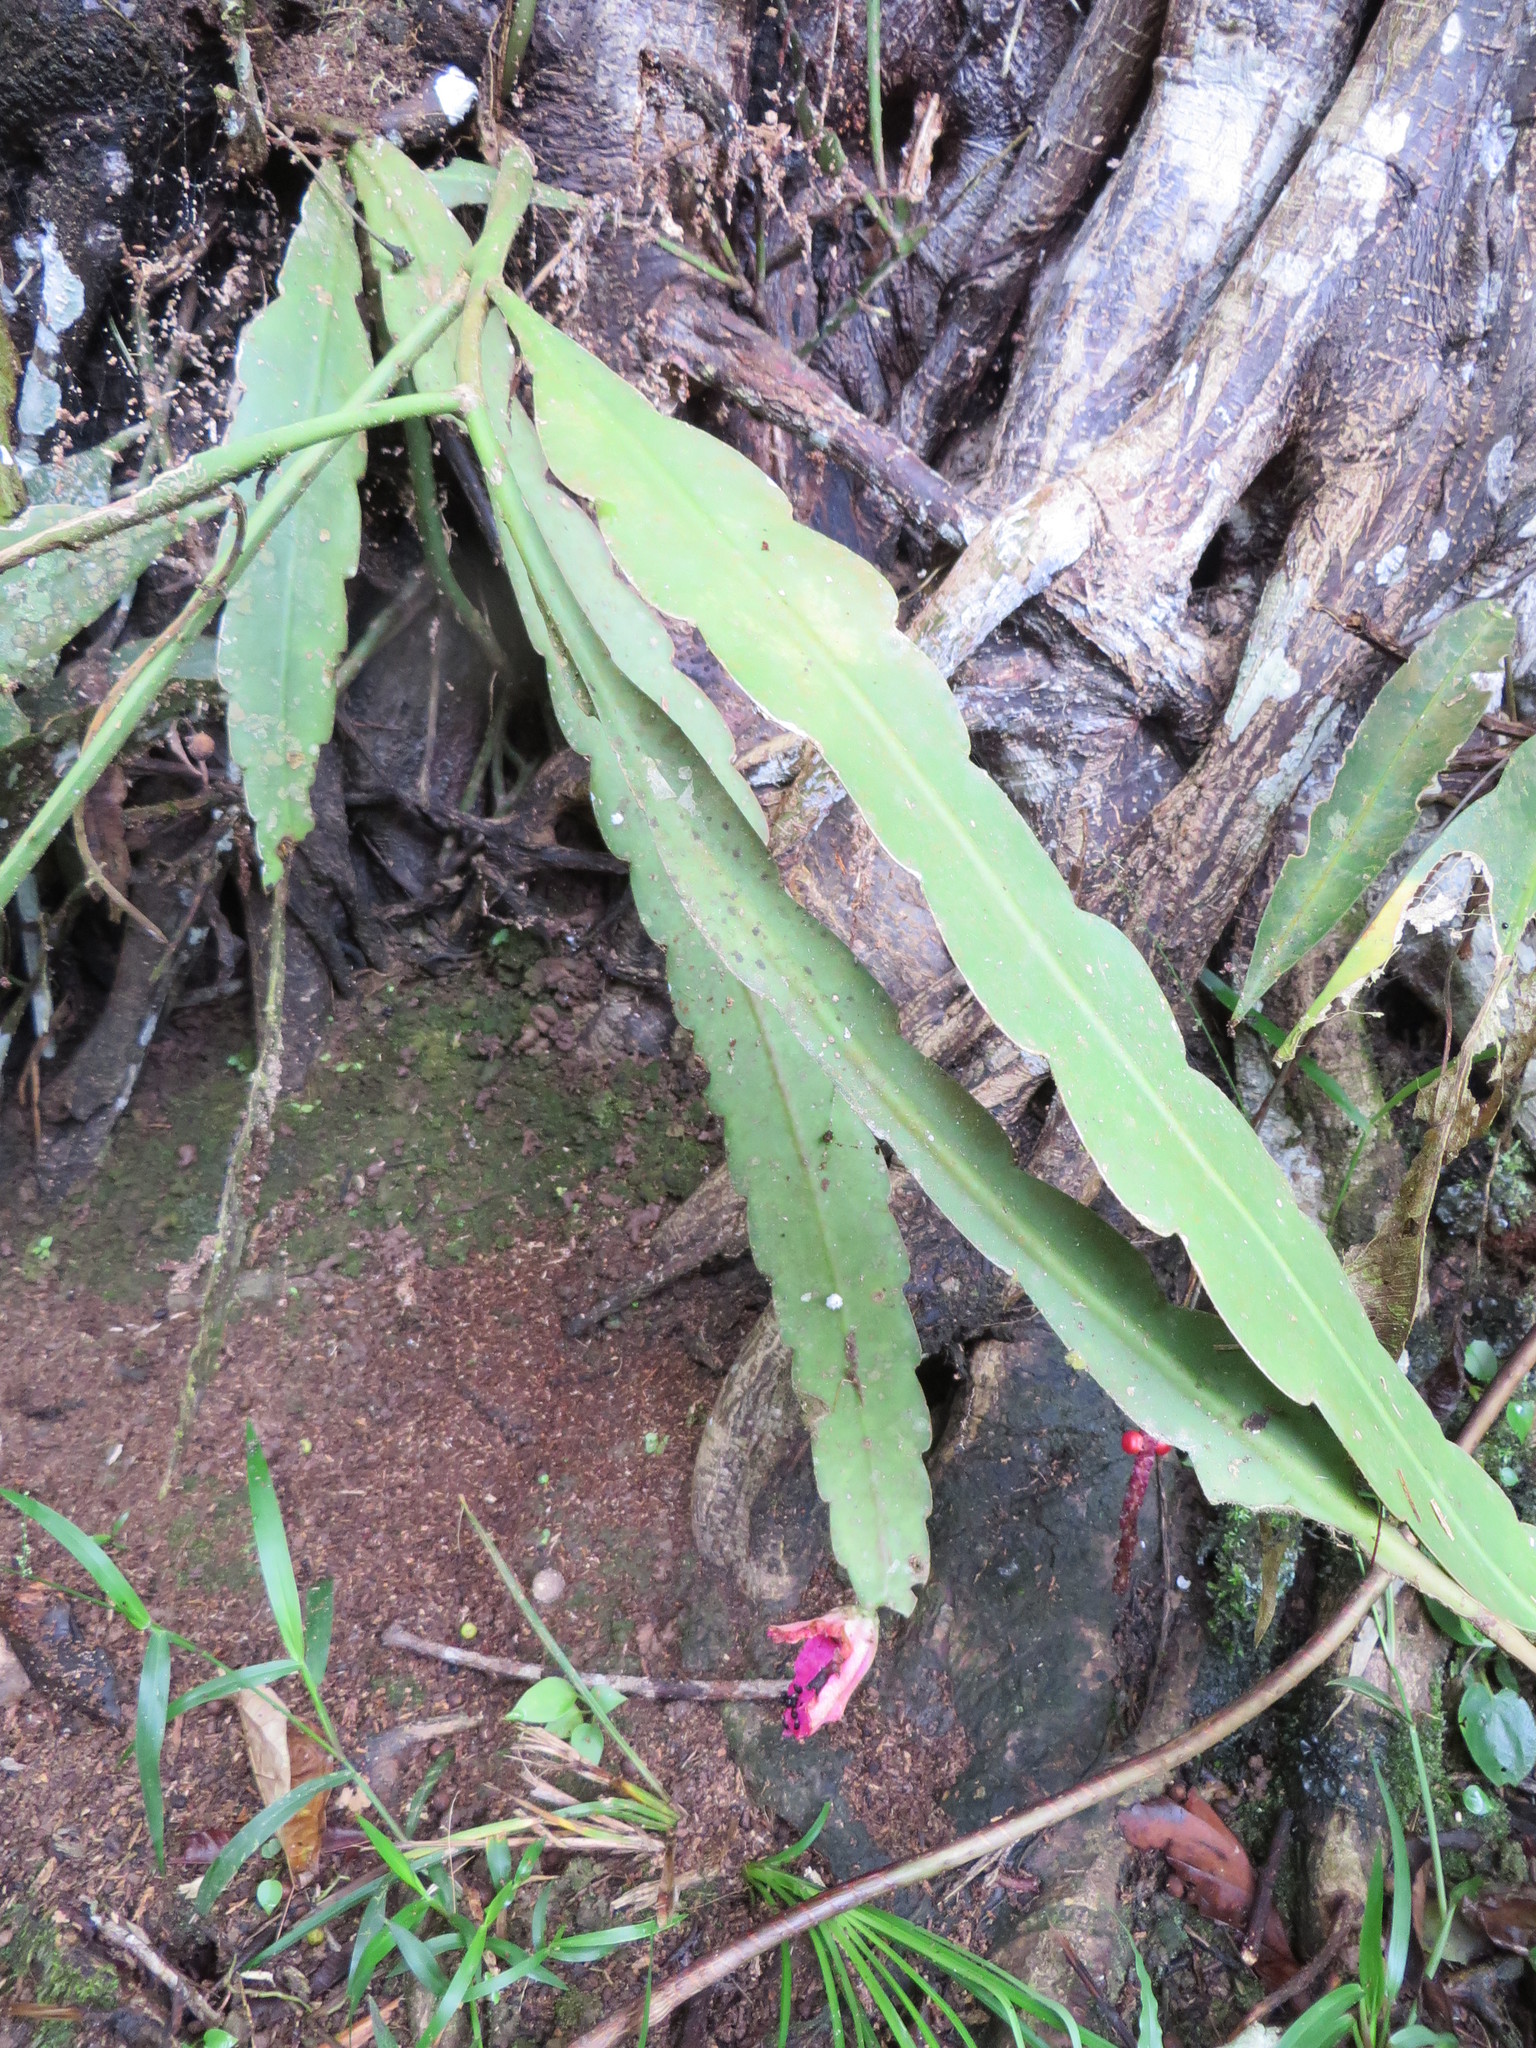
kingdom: Plantae
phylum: Tracheophyta
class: Magnoliopsida
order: Caryophyllales
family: Cactaceae
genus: Epiphyllum
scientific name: Epiphyllum phyllanthus
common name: Climbing cactus
